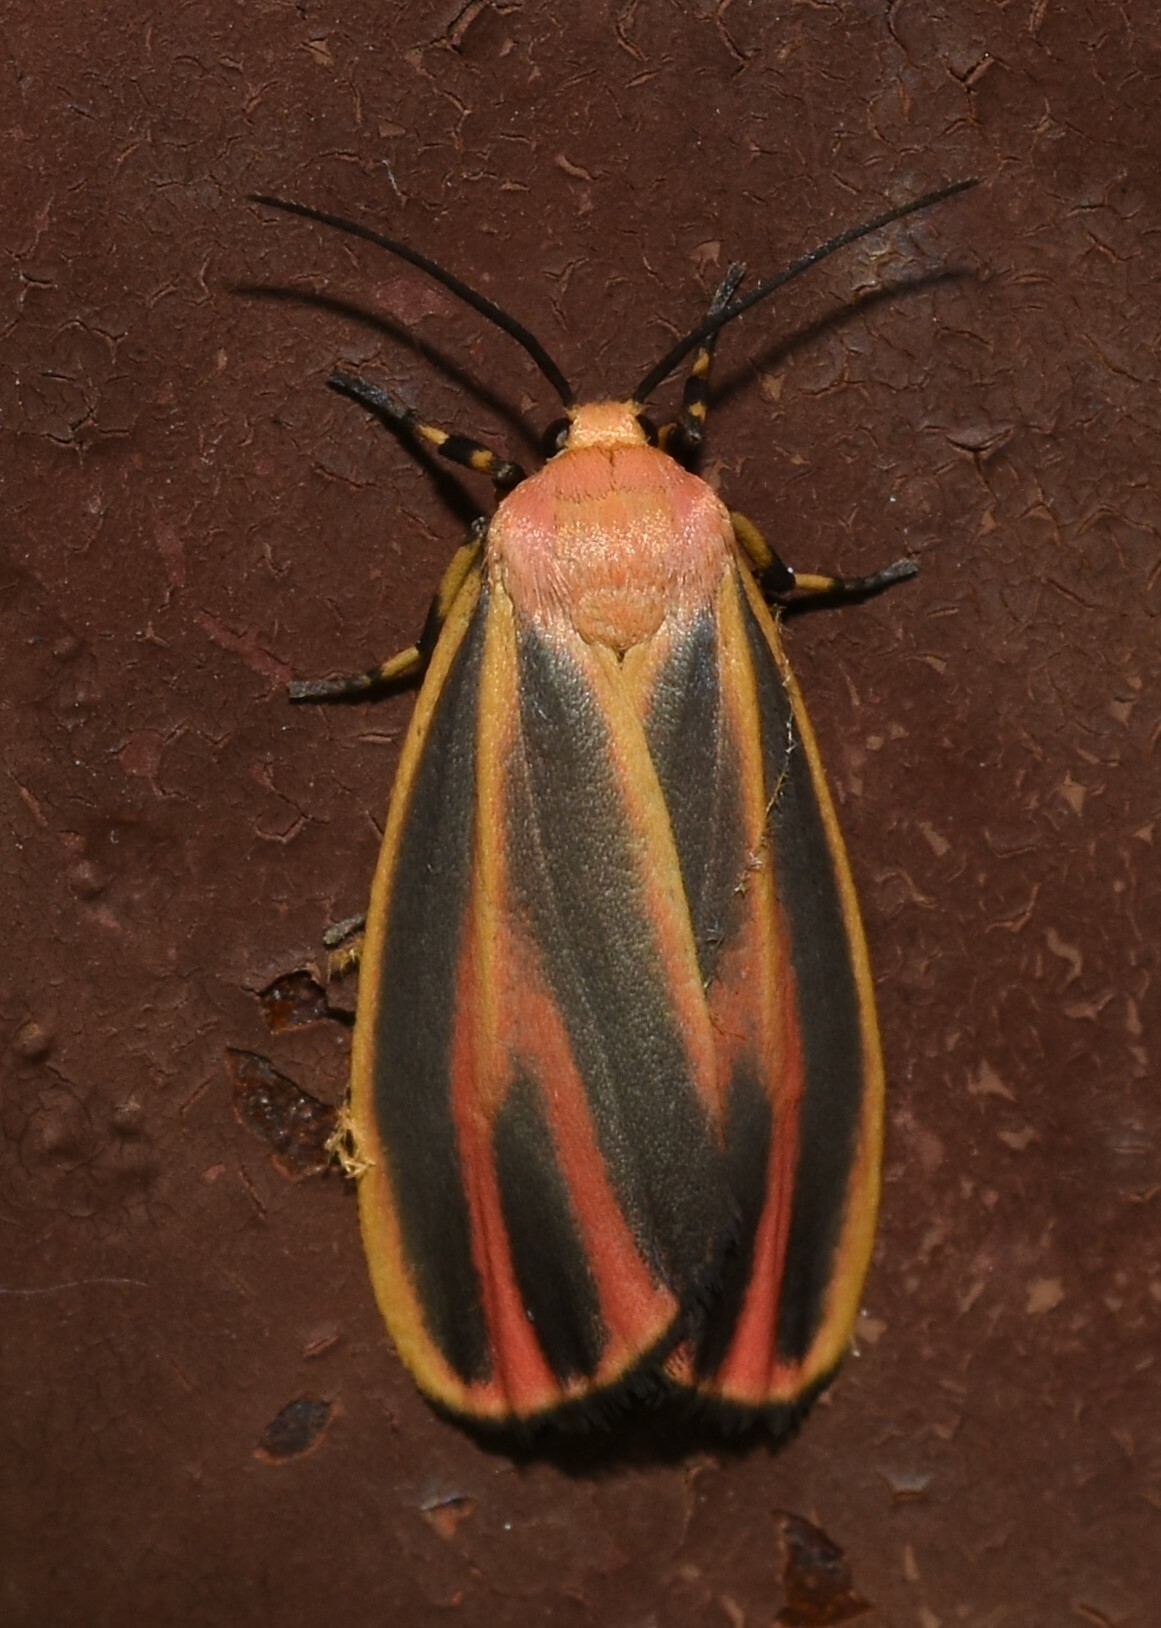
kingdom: Animalia
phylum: Arthropoda
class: Insecta
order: Lepidoptera
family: Erebidae
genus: Hypoprepia
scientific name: Hypoprepia fucosa
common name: Painted lichen moth
